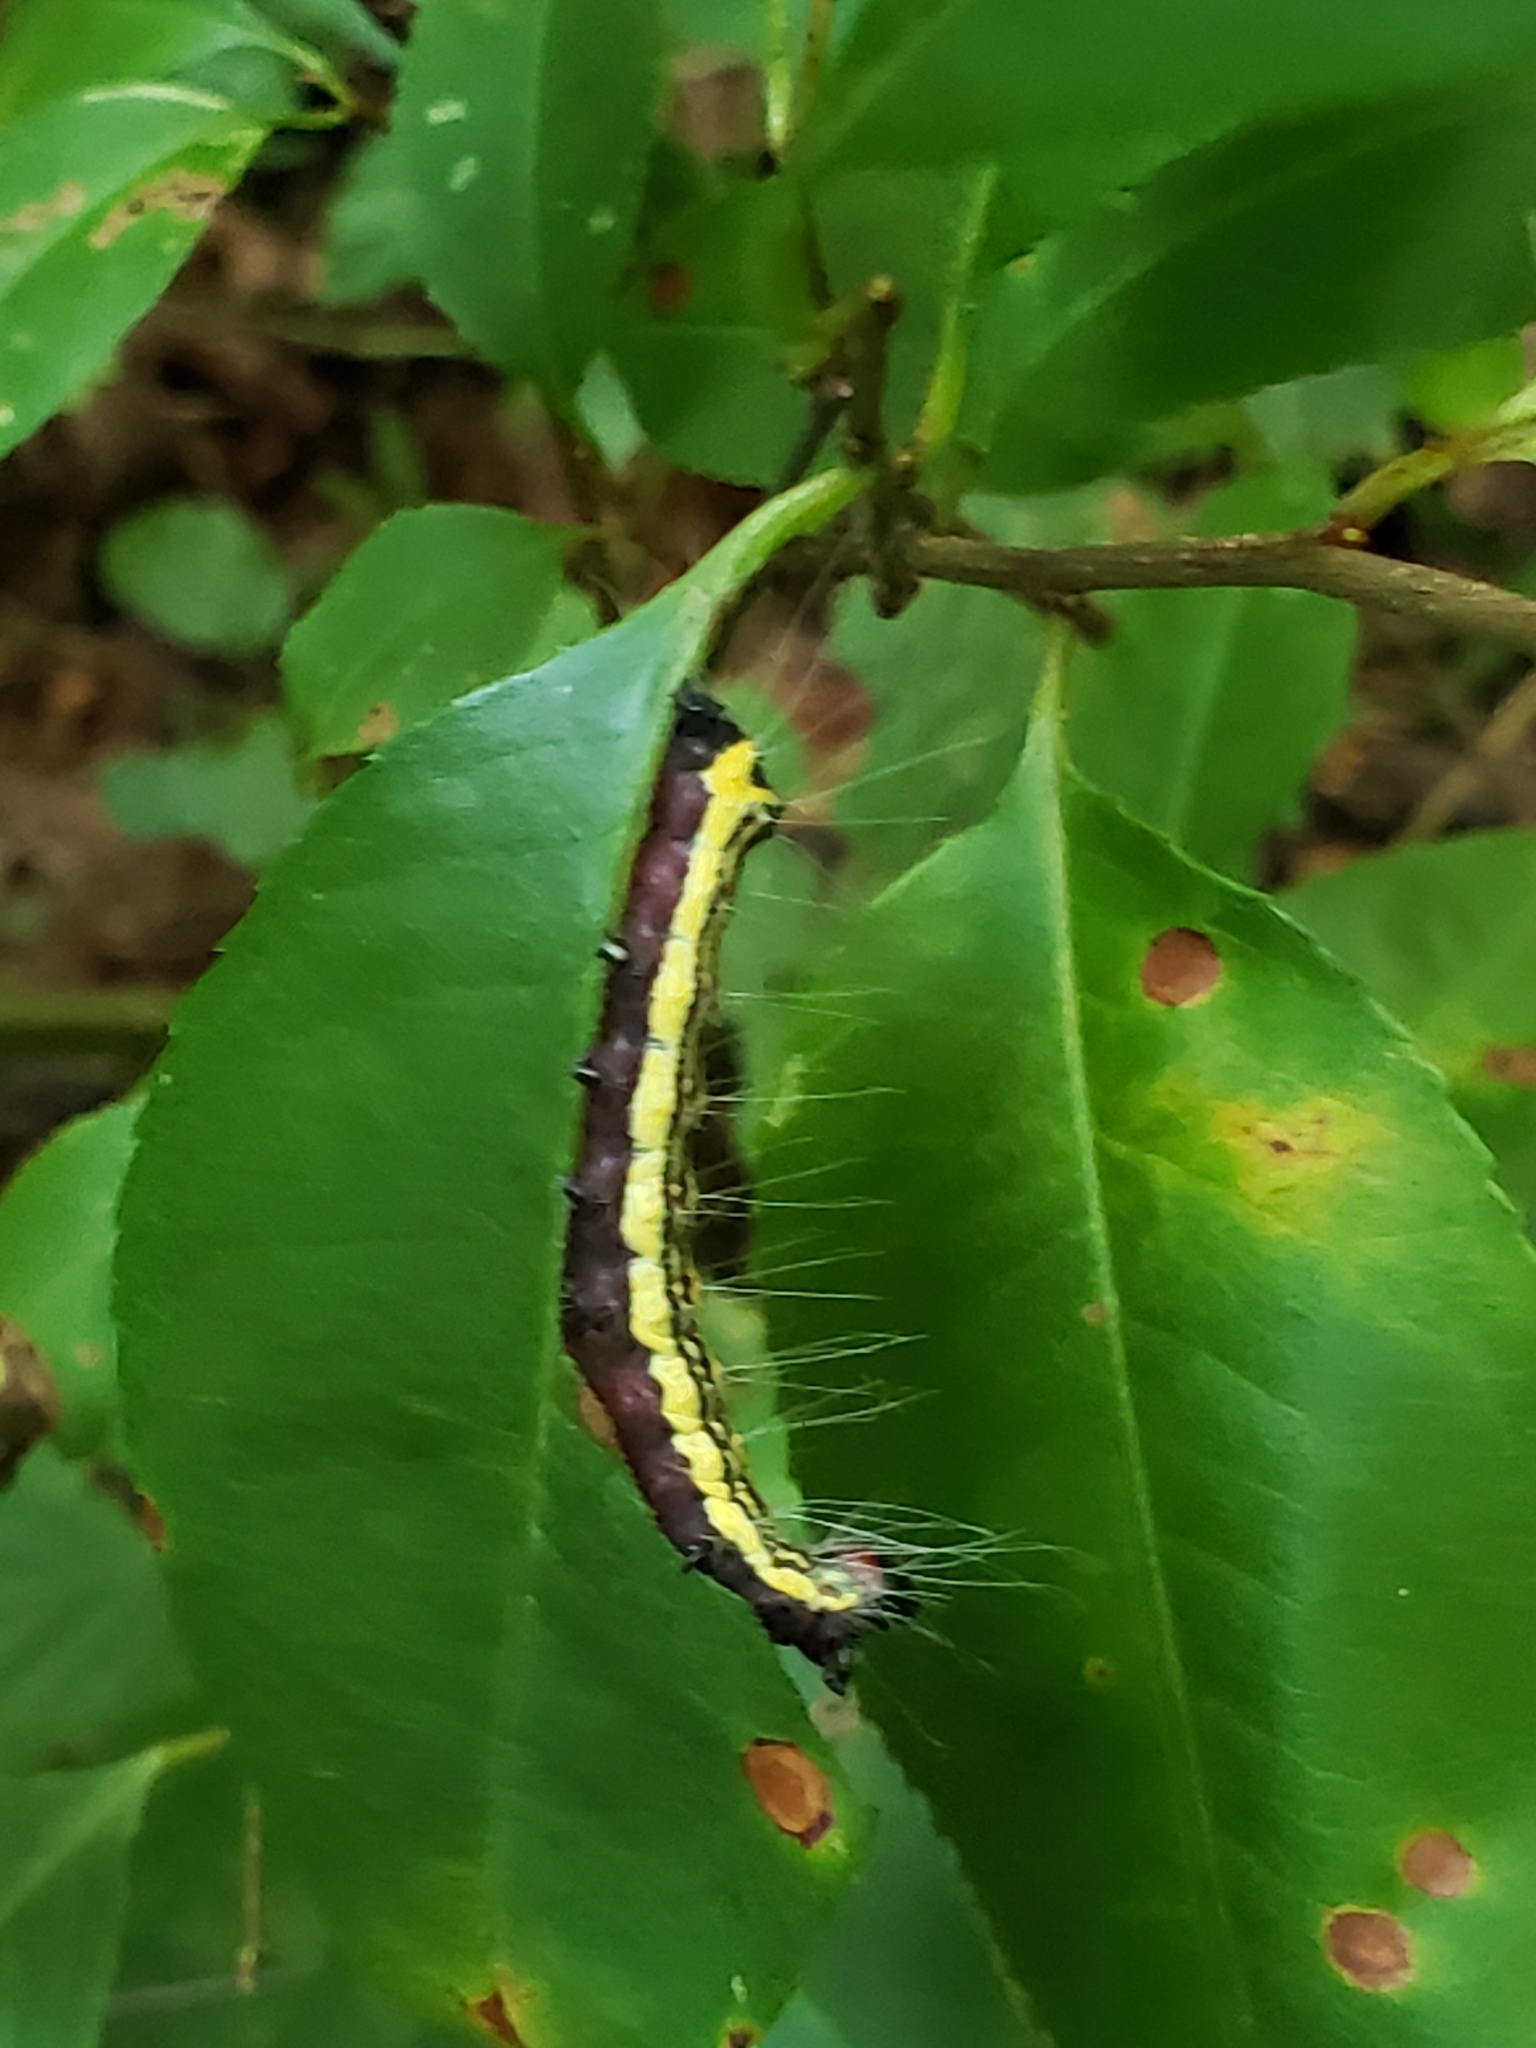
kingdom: Animalia
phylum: Arthropoda
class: Insecta
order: Lepidoptera
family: Noctuidae
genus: Acronicta
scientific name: Acronicta radcliffei
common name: Radcliffe's dagger
